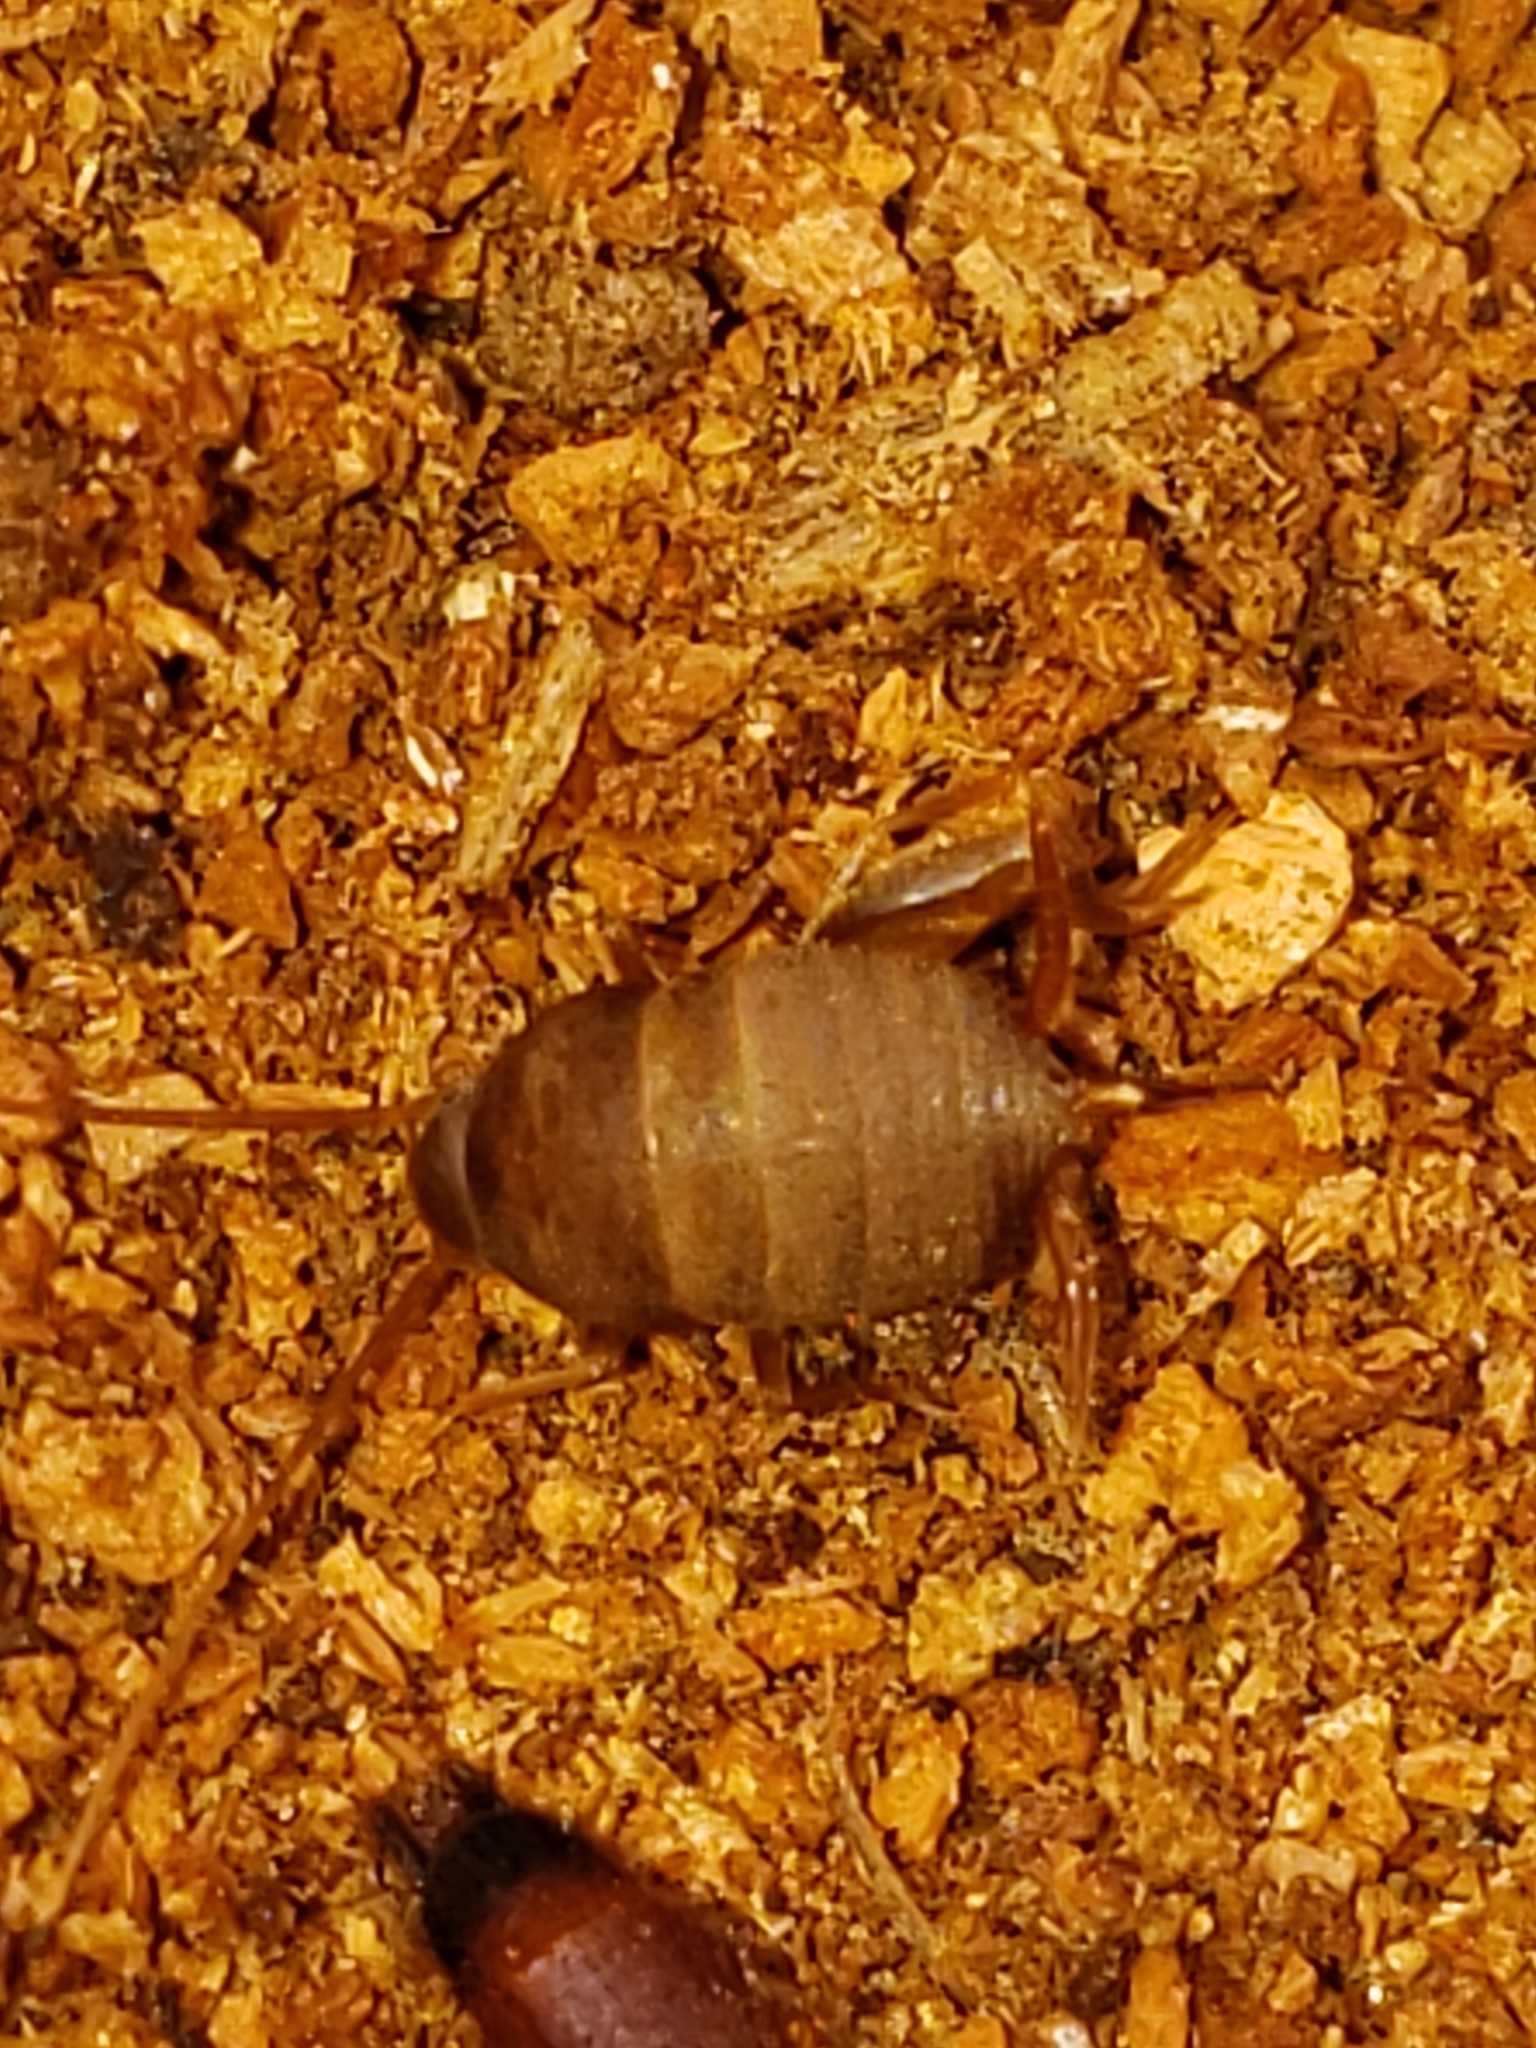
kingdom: Animalia
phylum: Arthropoda
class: Insecta
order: Orthoptera
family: Myrmecophilidae
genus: Myrmecophilus
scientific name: Myrmecophilus pergandei
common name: Eastern ant cricket
